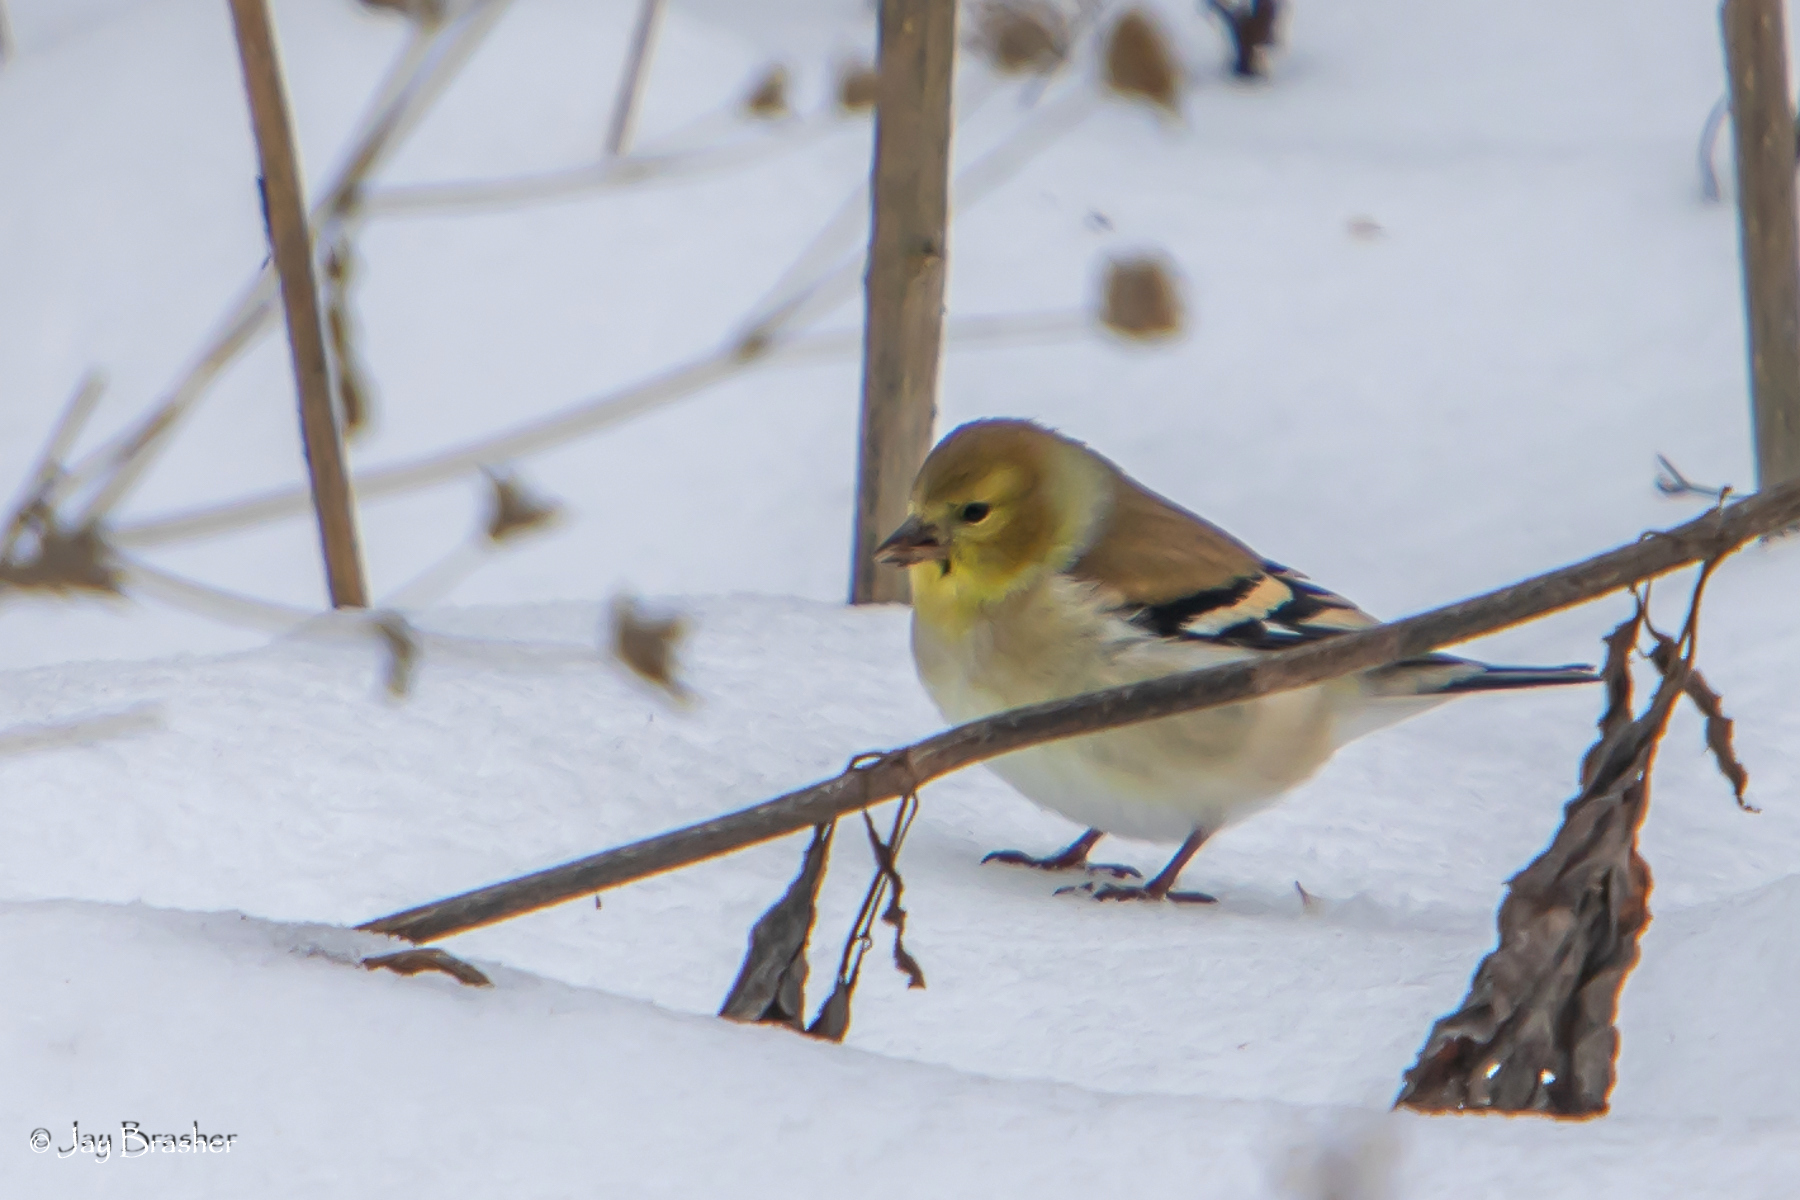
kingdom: Animalia
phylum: Chordata
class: Aves
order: Passeriformes
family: Fringillidae
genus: Spinus
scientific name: Spinus tristis
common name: American goldfinch
